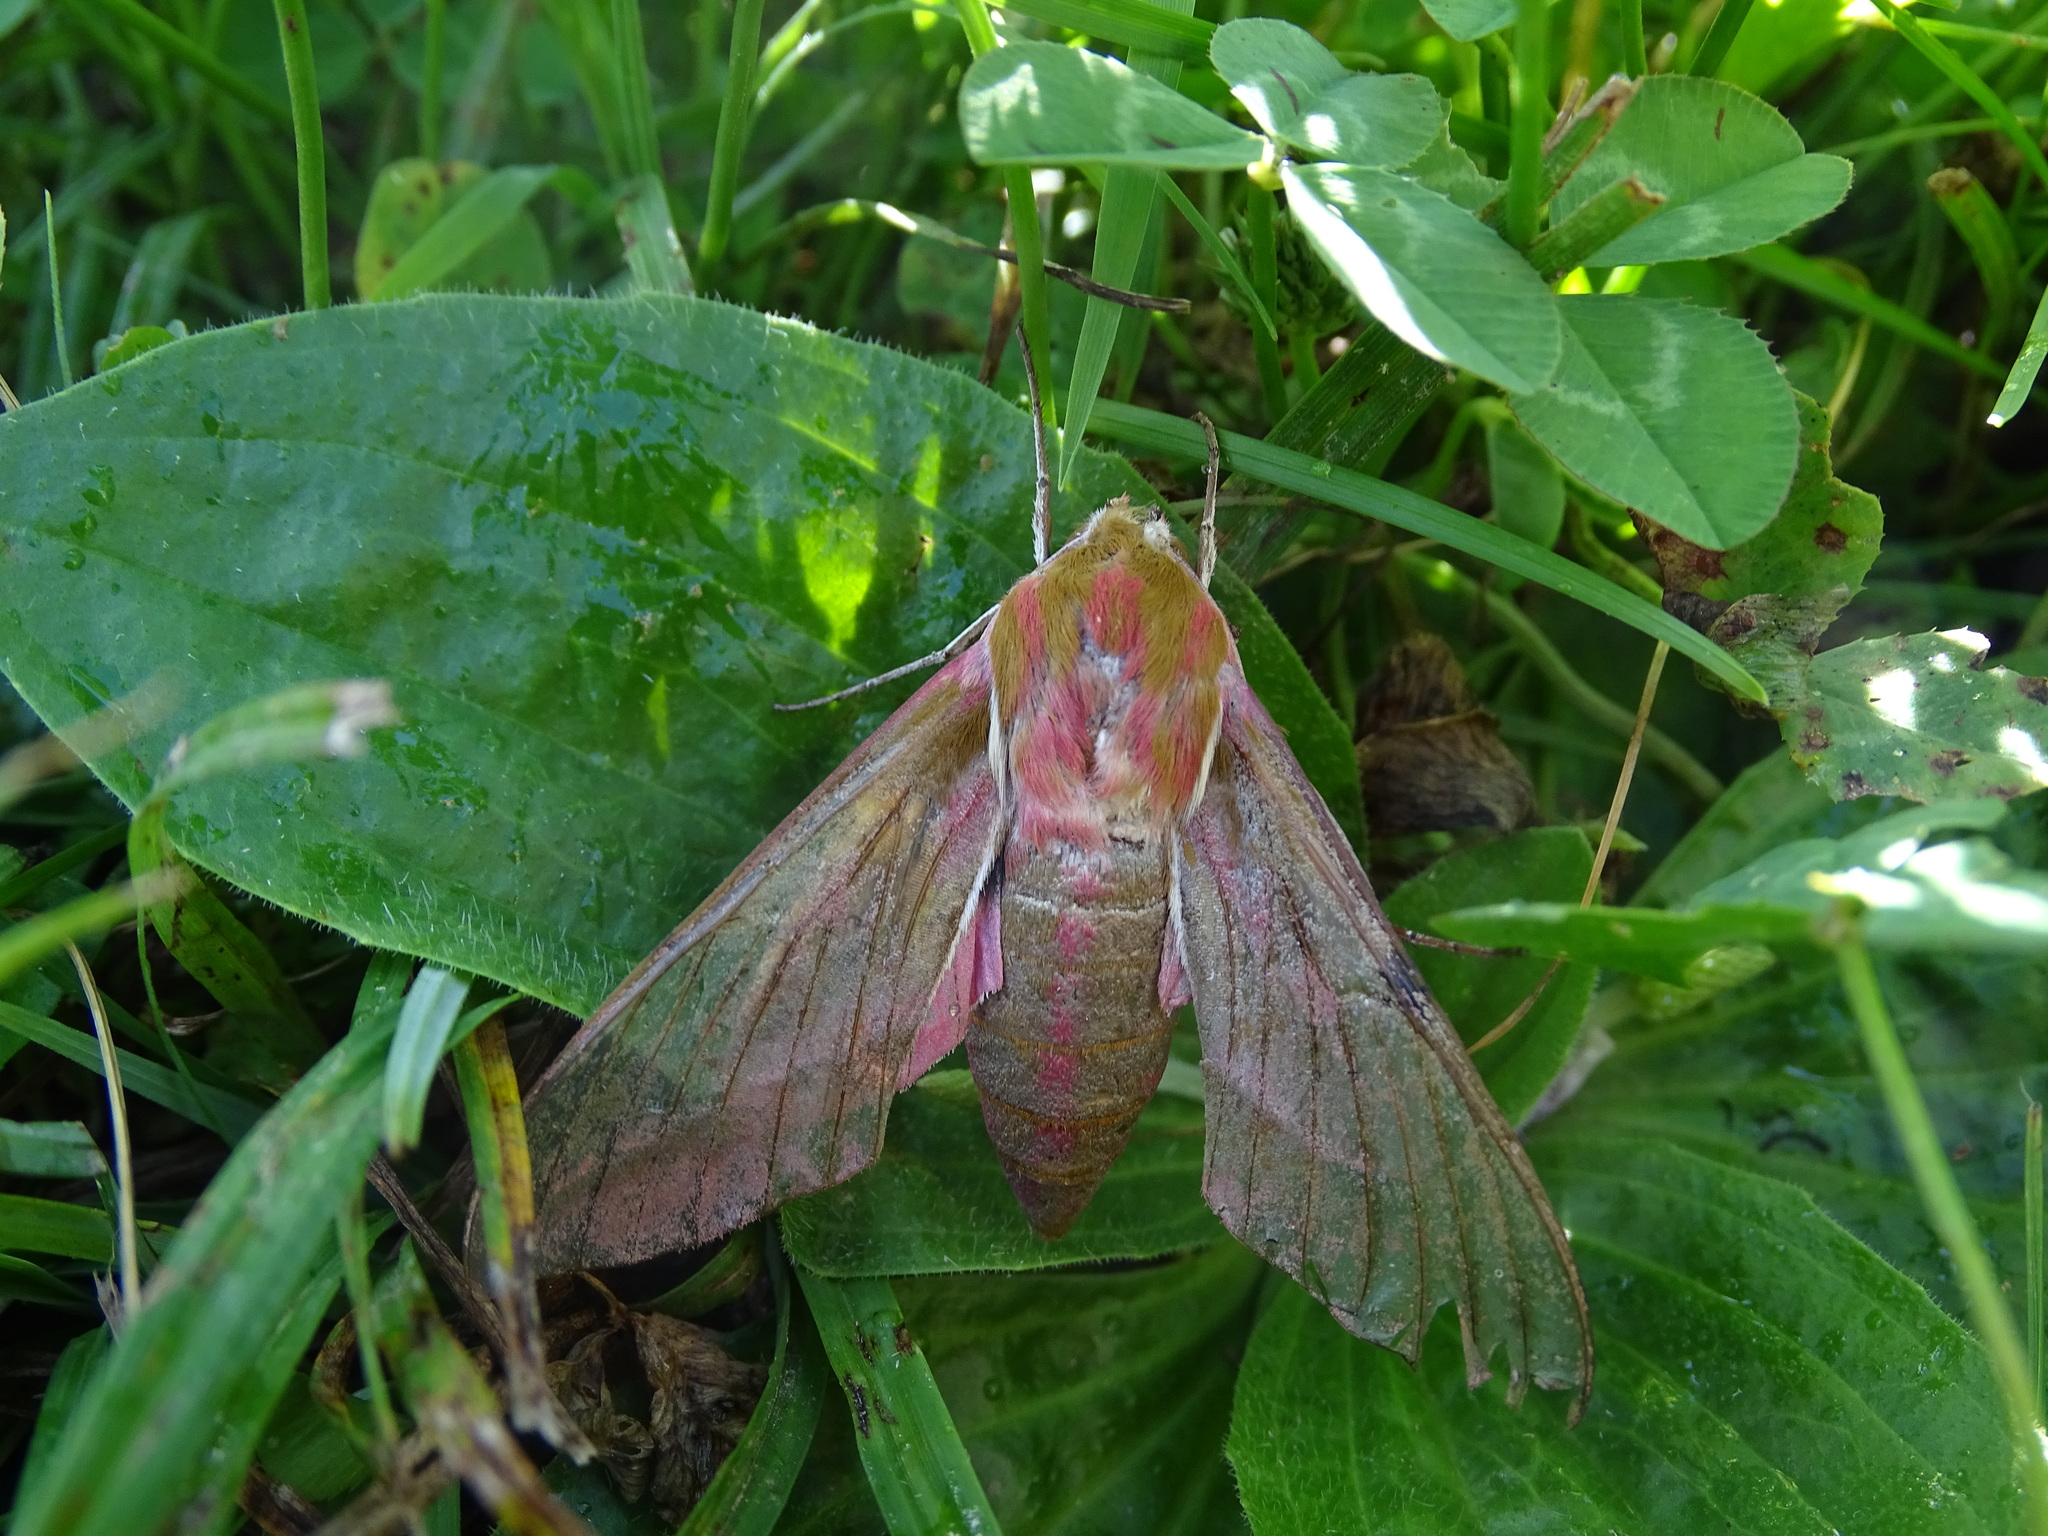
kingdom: Animalia
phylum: Arthropoda
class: Insecta
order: Lepidoptera
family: Sphingidae
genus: Deilephila
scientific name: Deilephila elpenor
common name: Elephant hawk-moth
